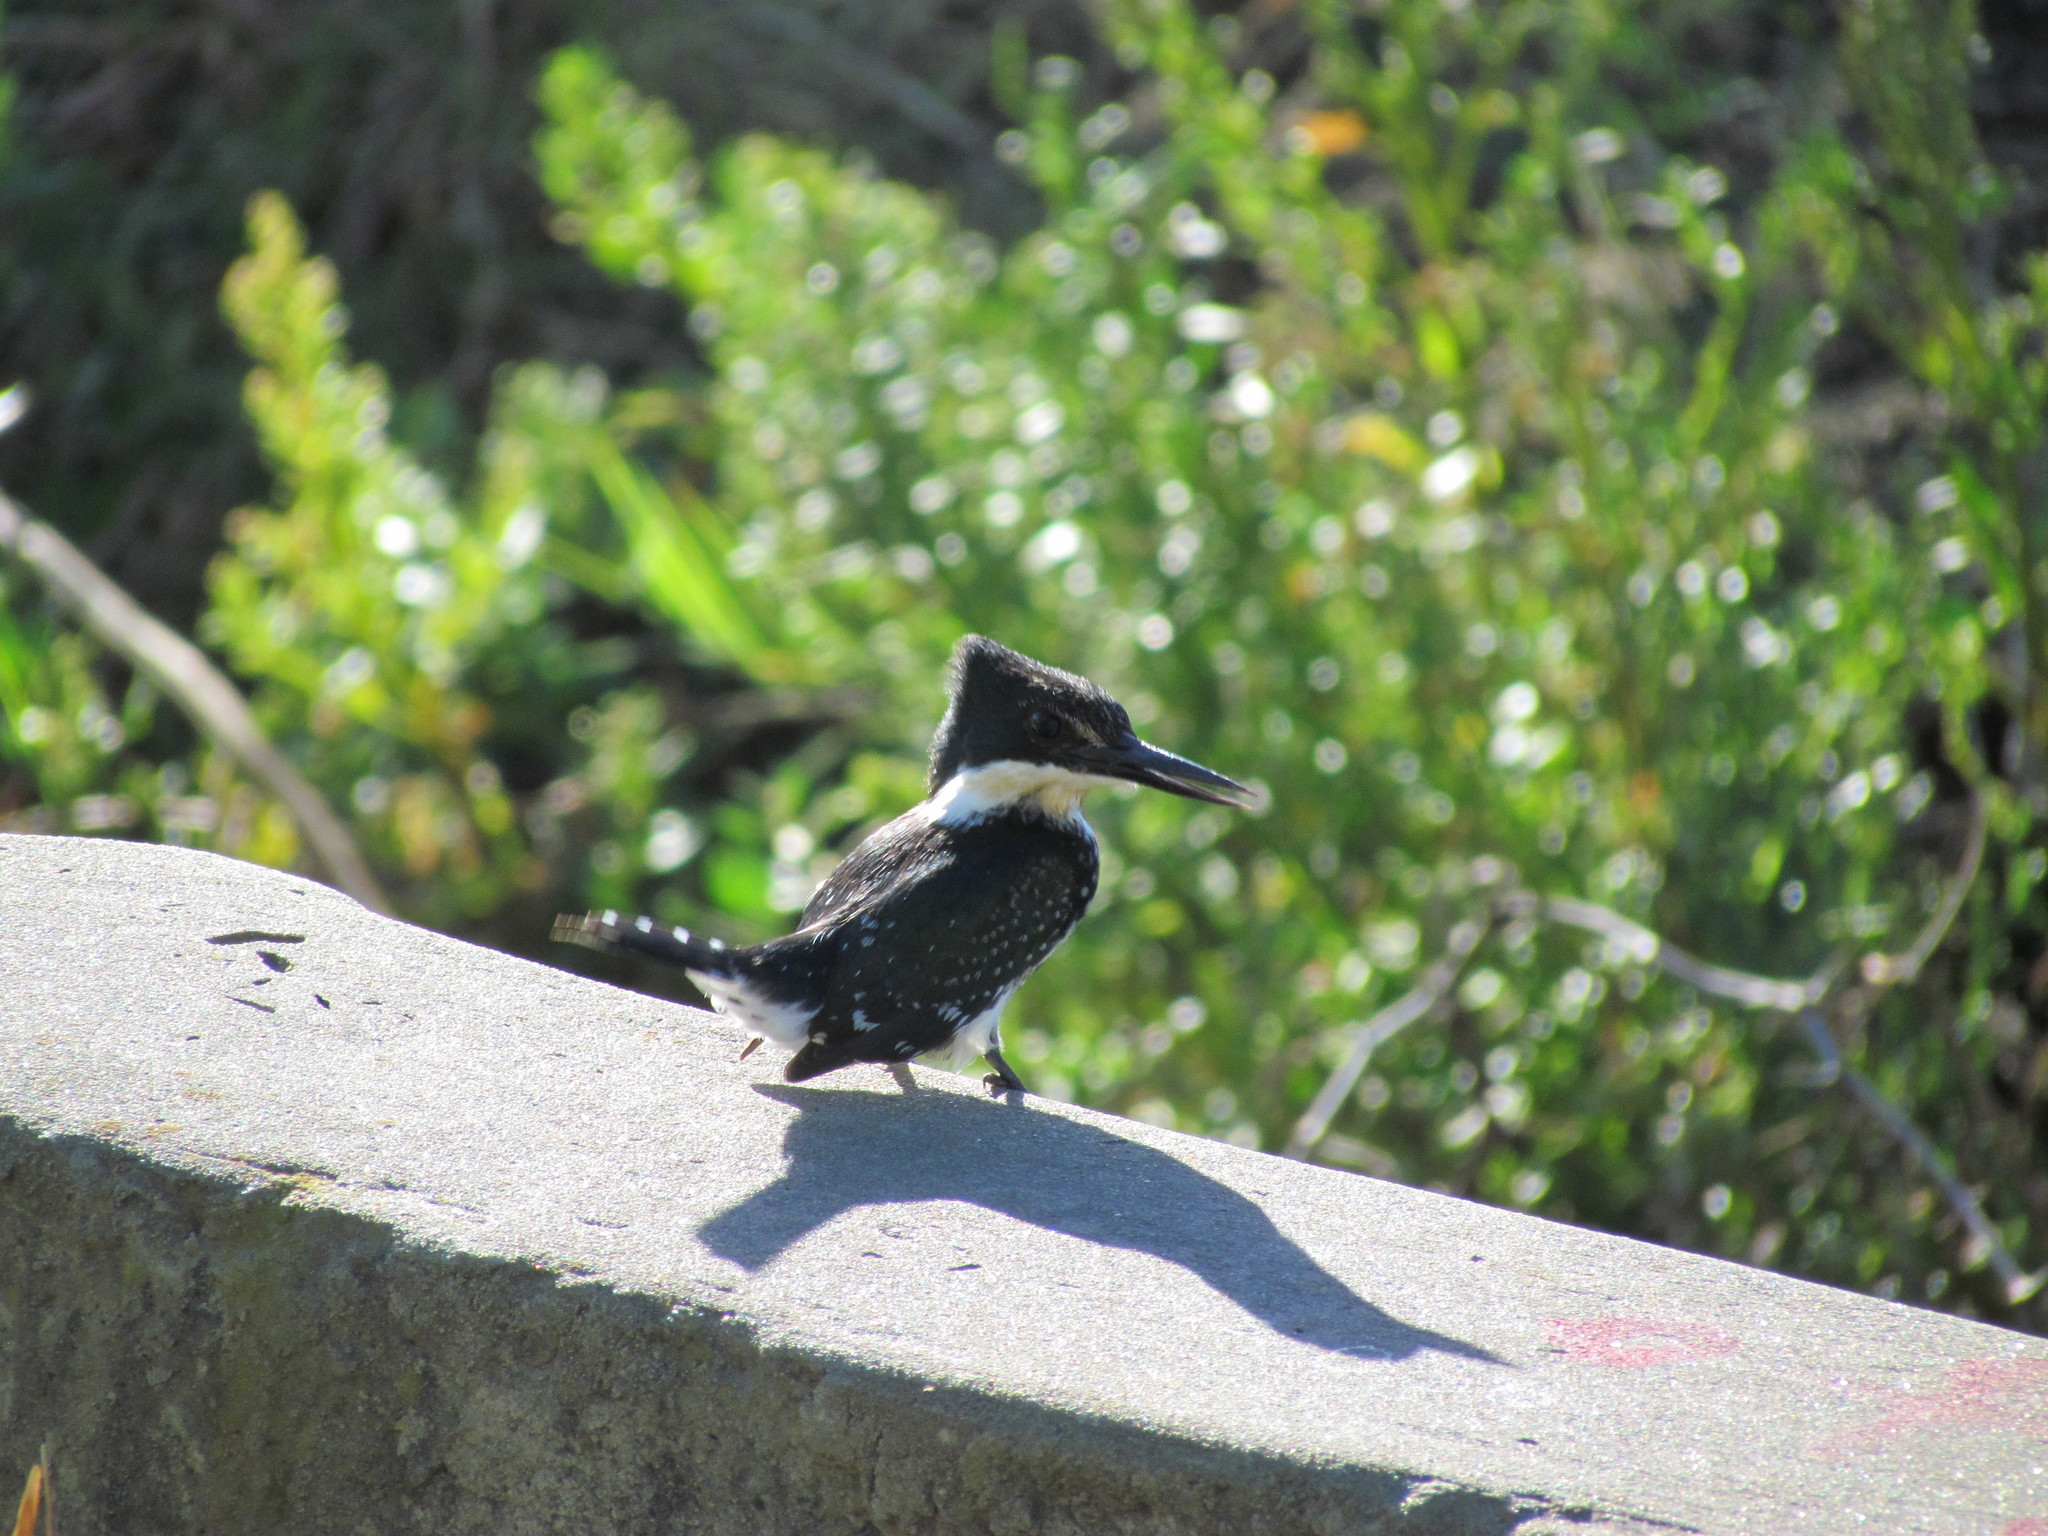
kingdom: Animalia
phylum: Chordata
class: Aves
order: Coraciiformes
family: Alcedinidae
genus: Chloroceryle
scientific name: Chloroceryle americana
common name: Green kingfisher
